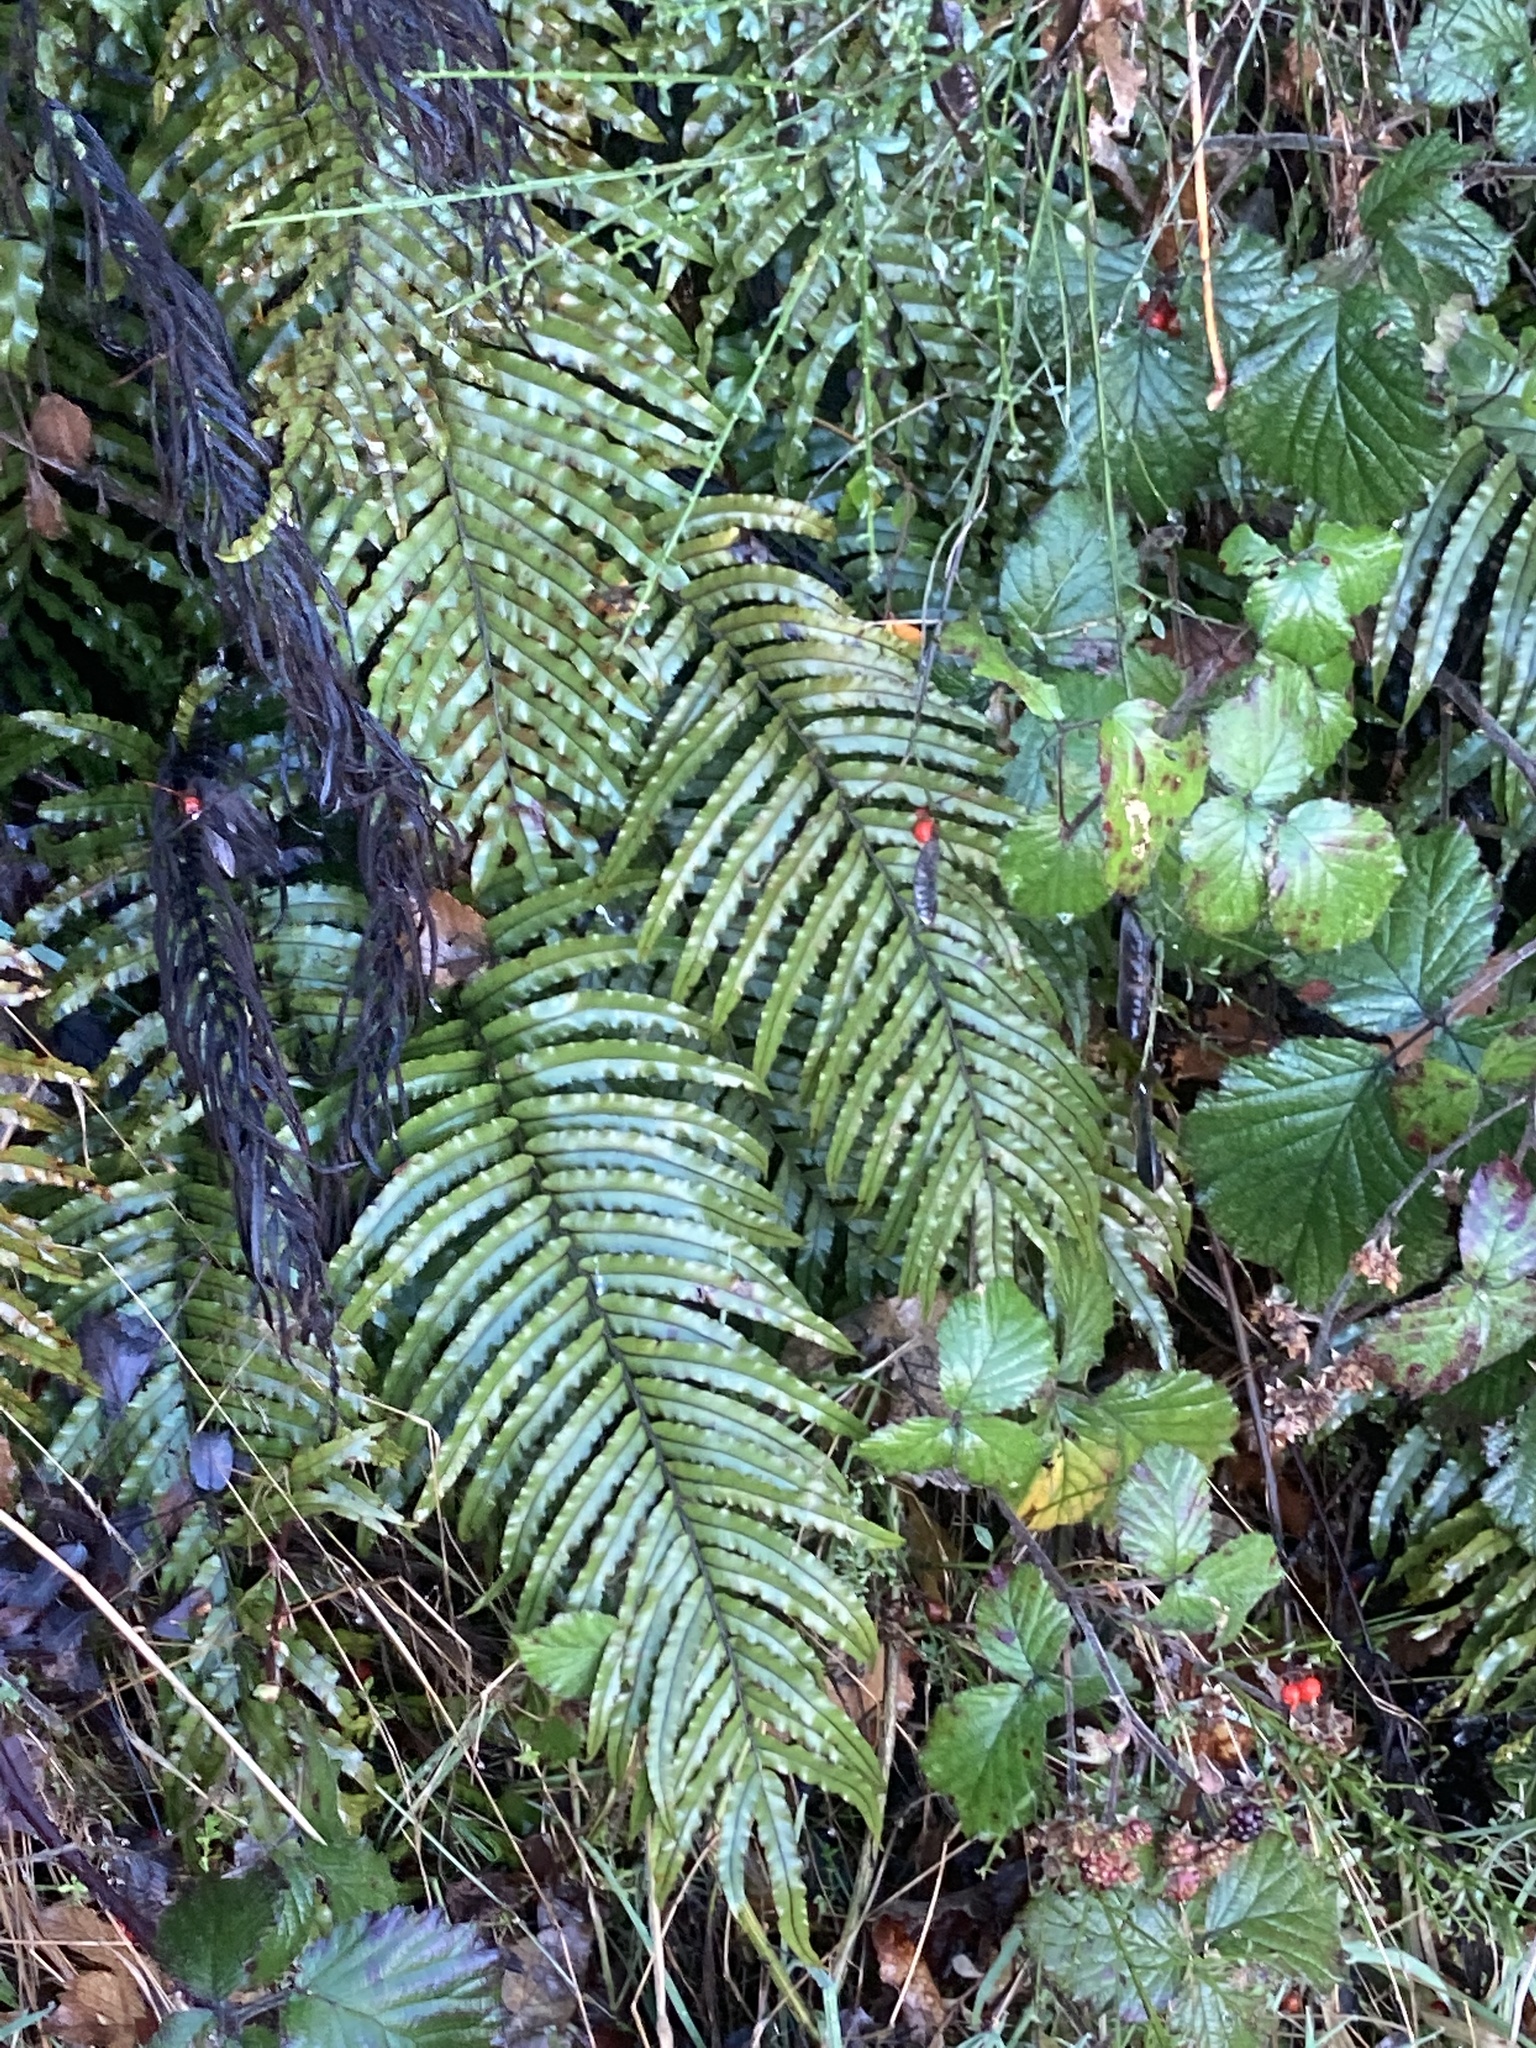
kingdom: Plantae
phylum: Tracheophyta
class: Polypodiopsida
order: Polypodiales
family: Blechnaceae
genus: Parablechnum
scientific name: Parablechnum novae-zelandiae
